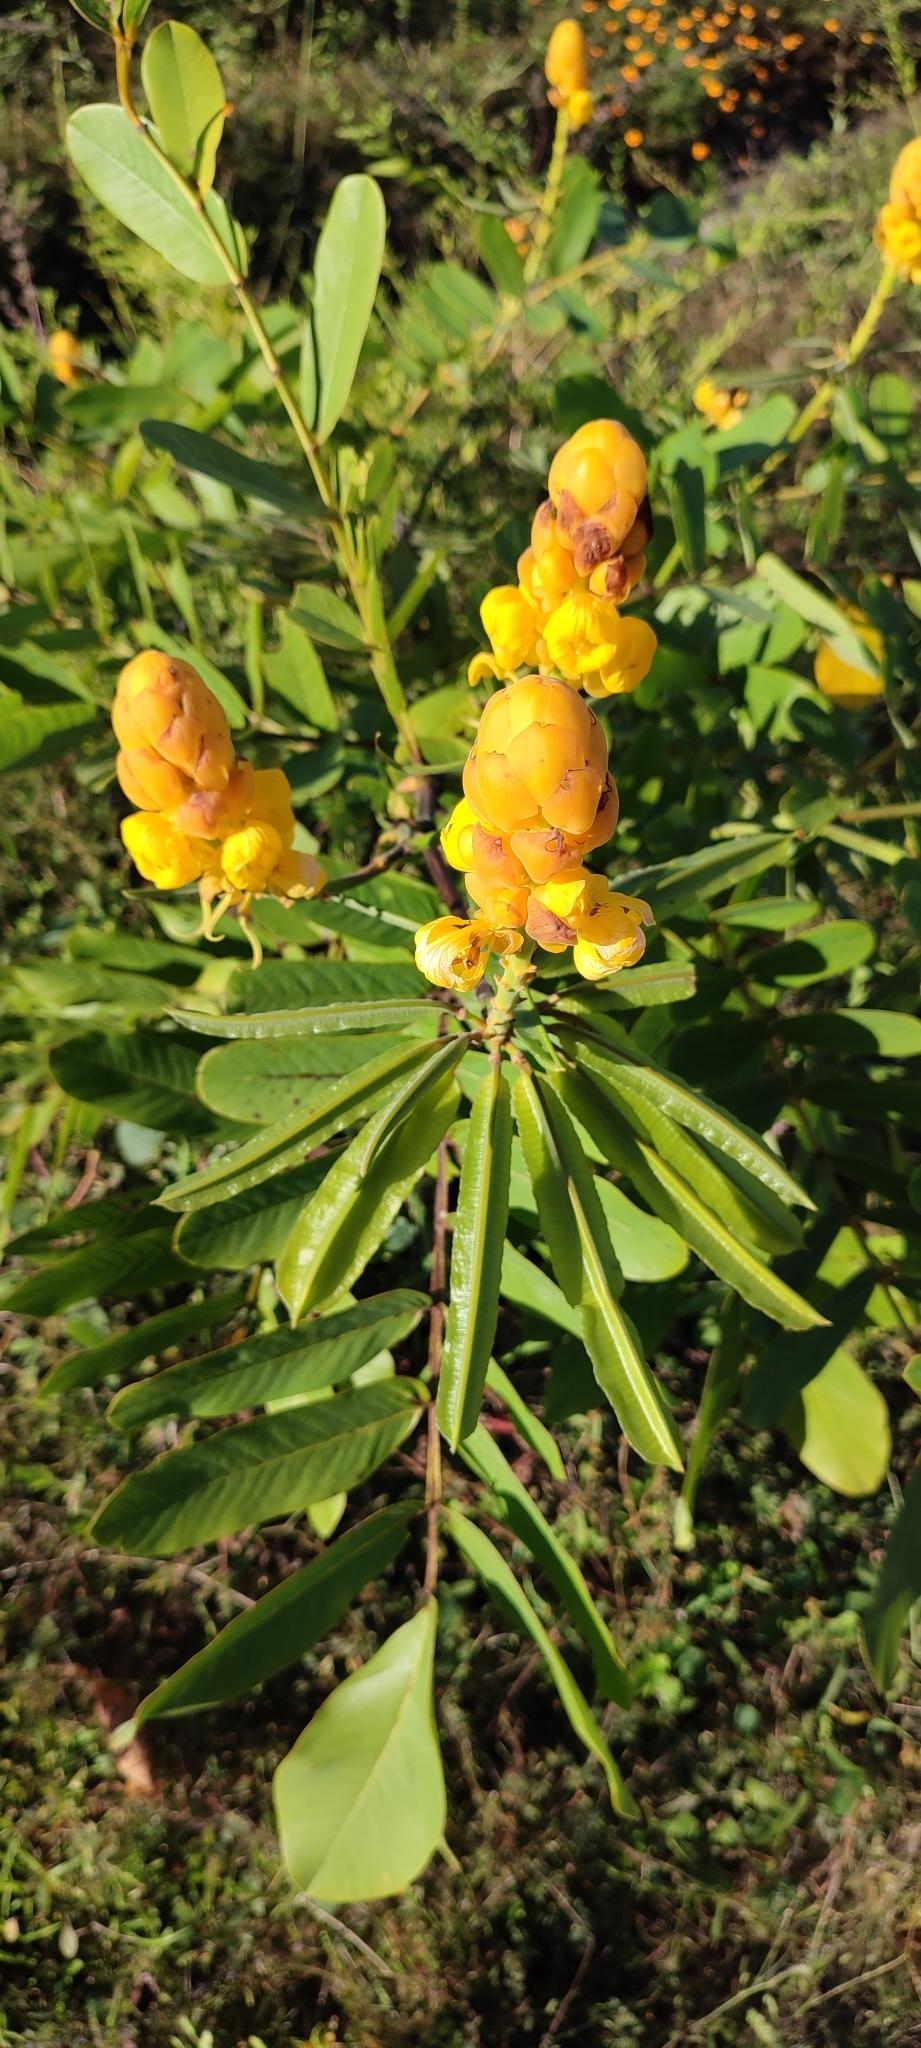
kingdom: Plantae
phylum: Tracheophyta
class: Magnoliopsida
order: Fabales
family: Fabaceae
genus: Senna
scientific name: Senna alata
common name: Emperor's candlesticks
